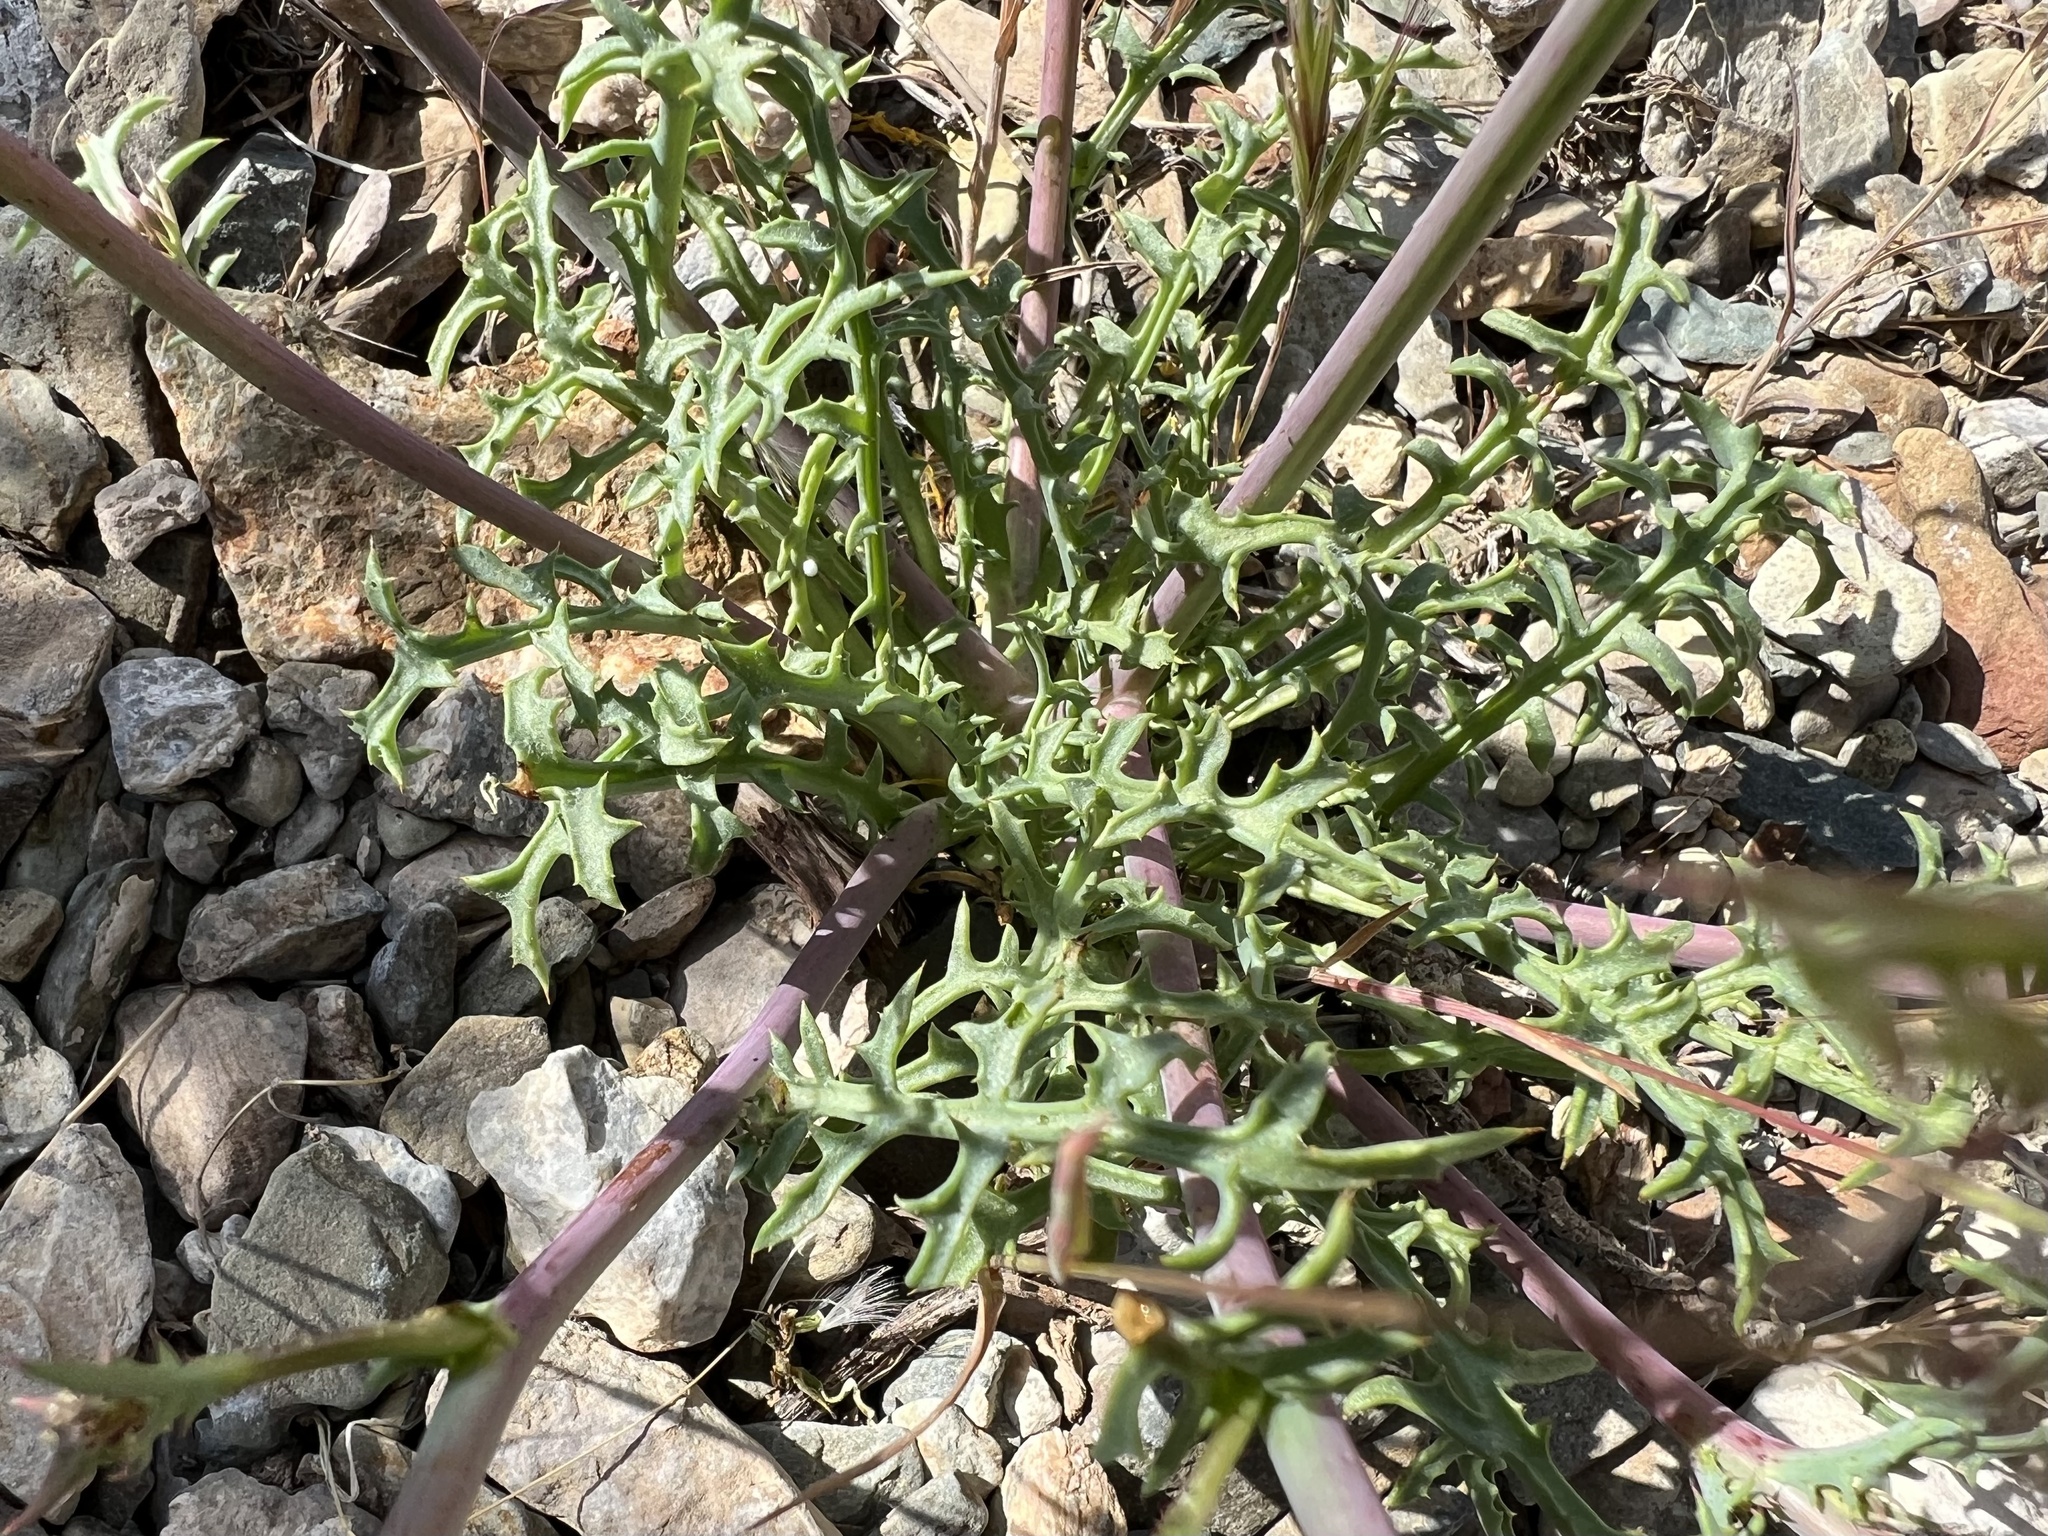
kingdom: Plantae
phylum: Tracheophyta
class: Magnoliopsida
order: Asterales
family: Asteraceae
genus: Calycoseris
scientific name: Calycoseris parryi
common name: Yellow tackstem
